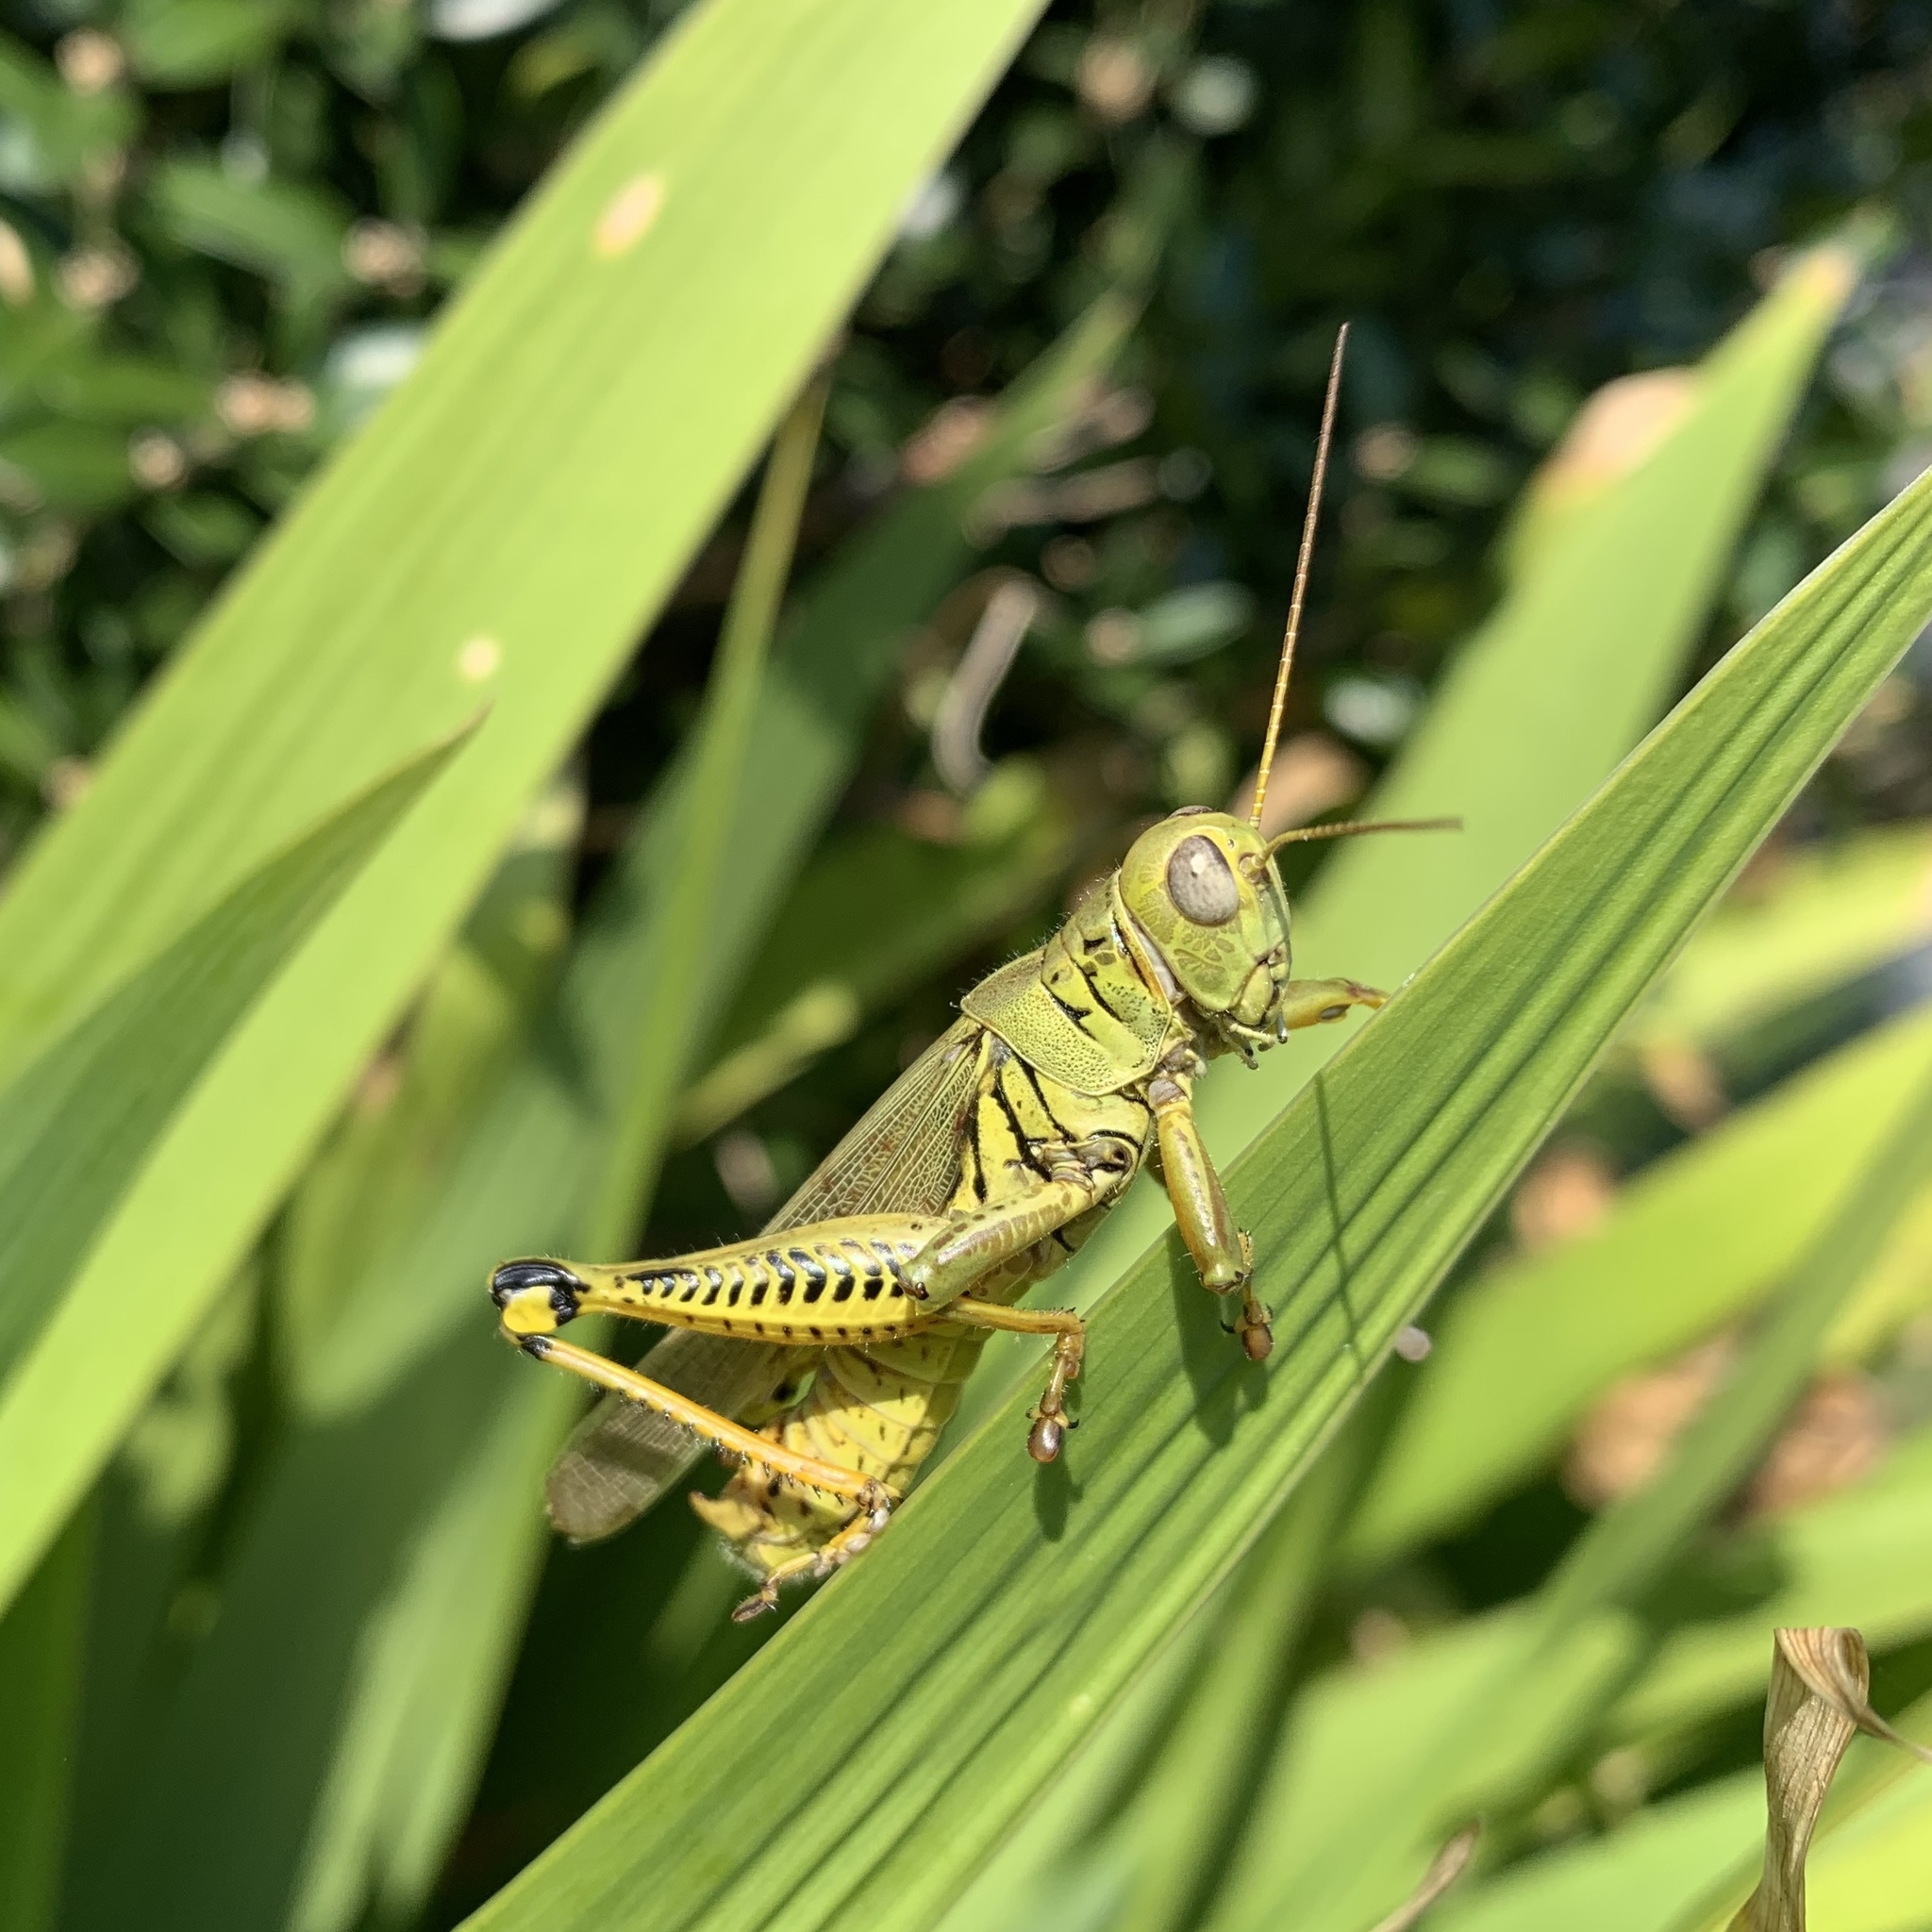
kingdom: Animalia
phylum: Arthropoda
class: Insecta
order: Orthoptera
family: Acrididae
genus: Melanoplus
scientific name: Melanoplus differentialis
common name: Differential grasshopper
